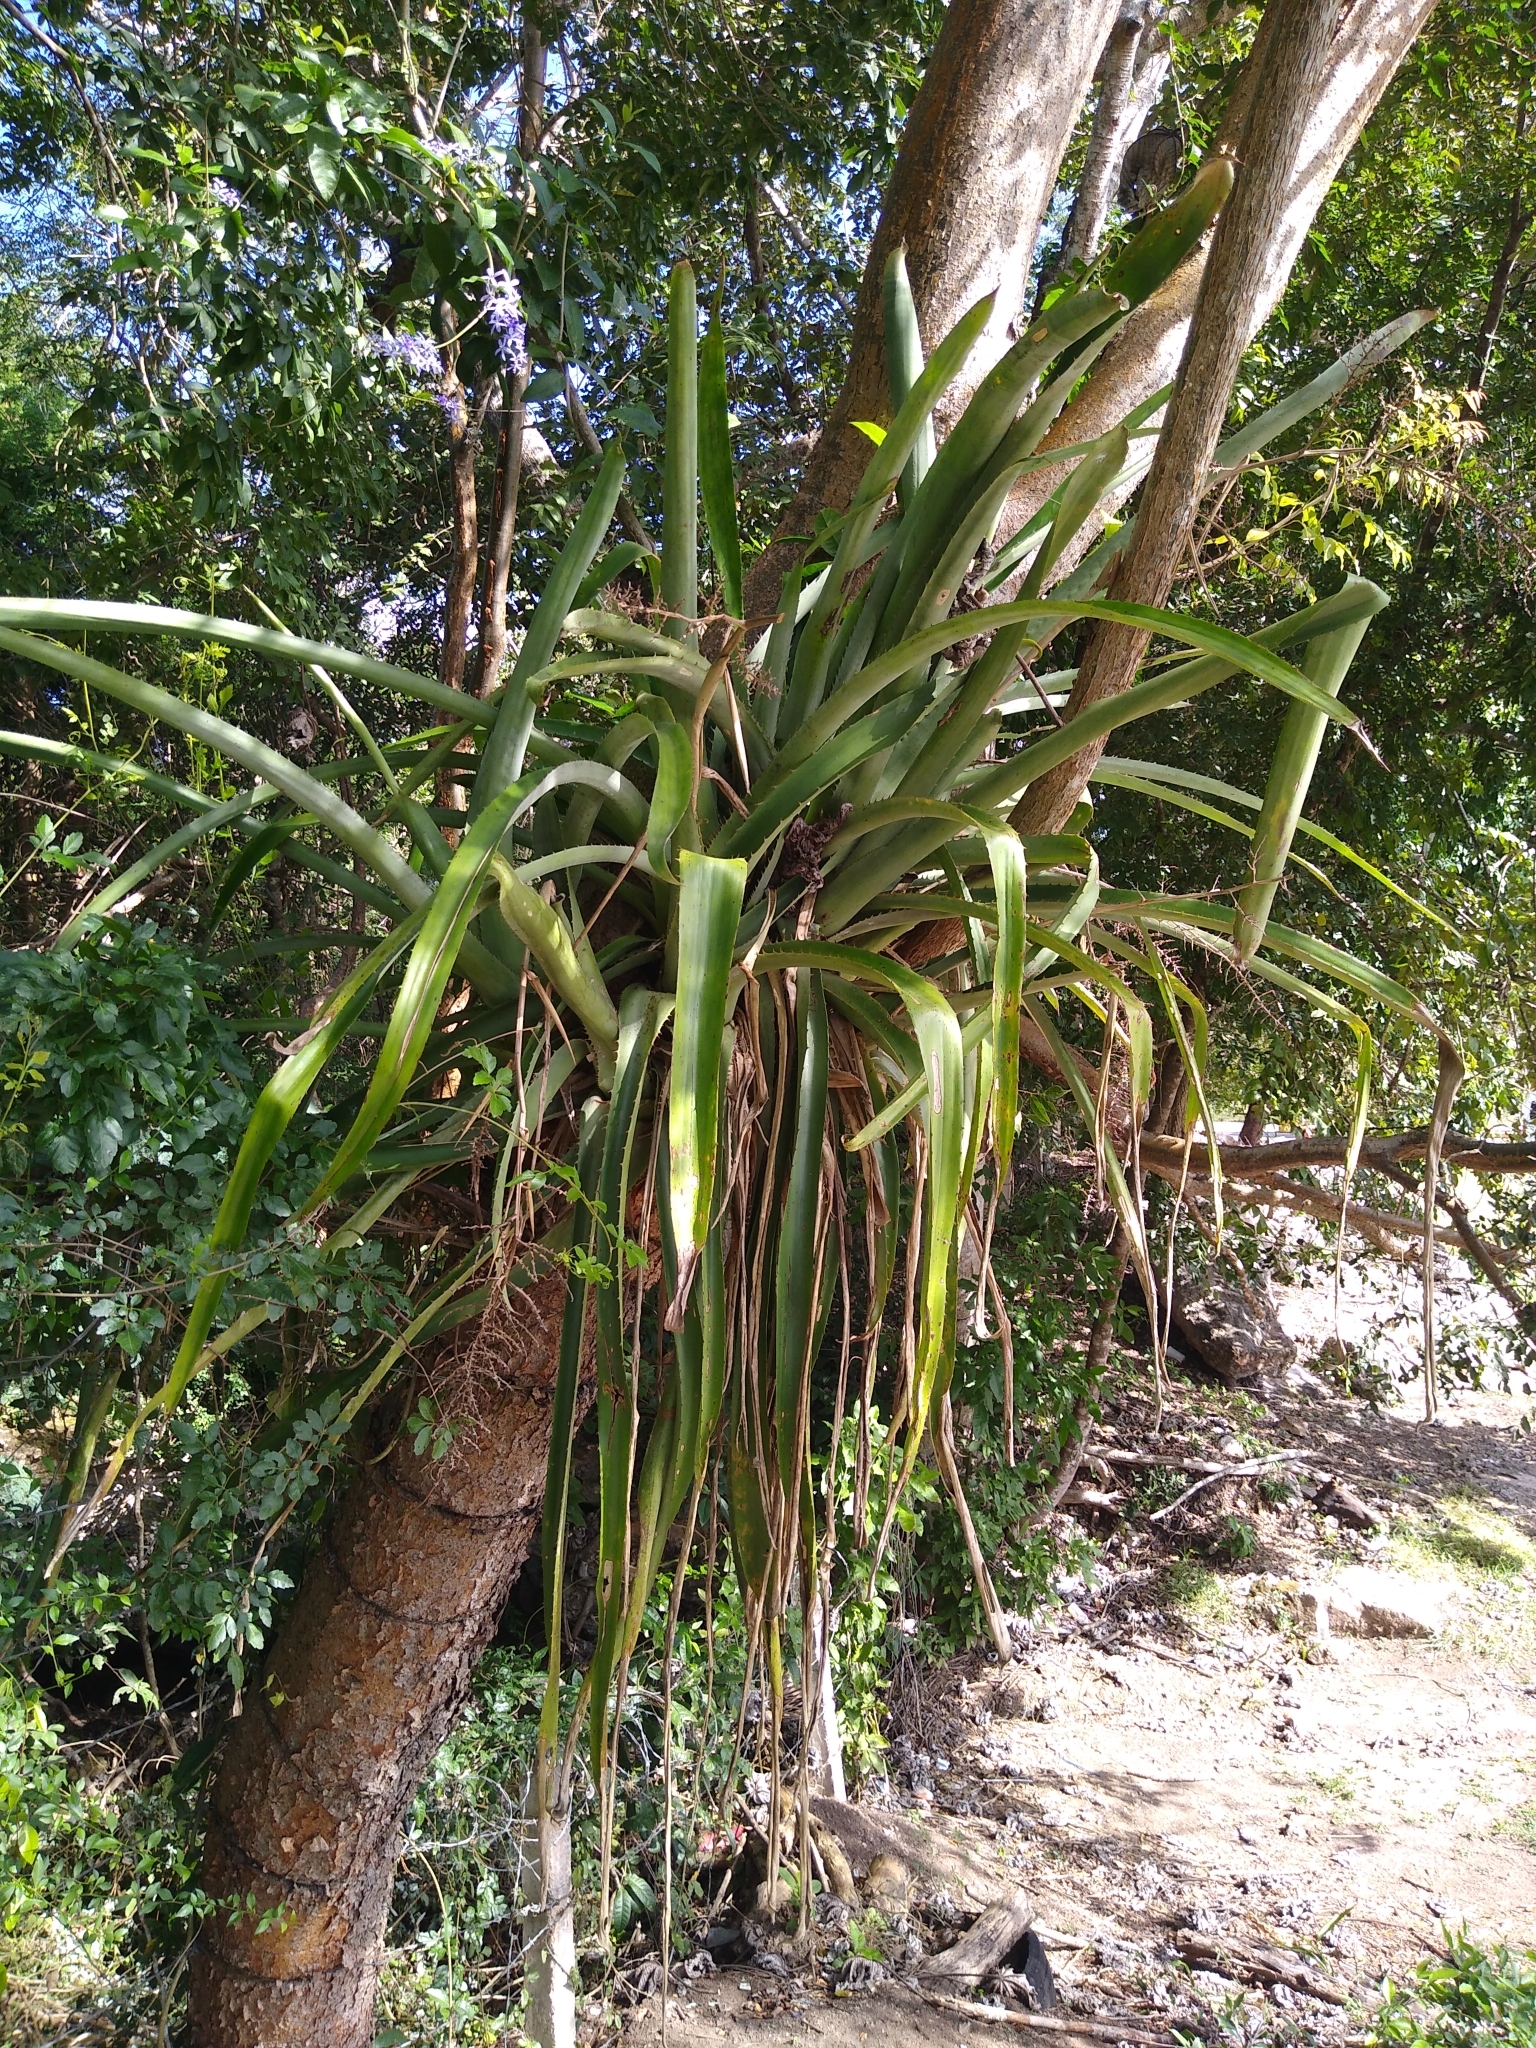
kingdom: Plantae
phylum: Tracheophyta
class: Liliopsida
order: Poales
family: Bromeliaceae
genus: Aechmea
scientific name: Aechmea bracteata
